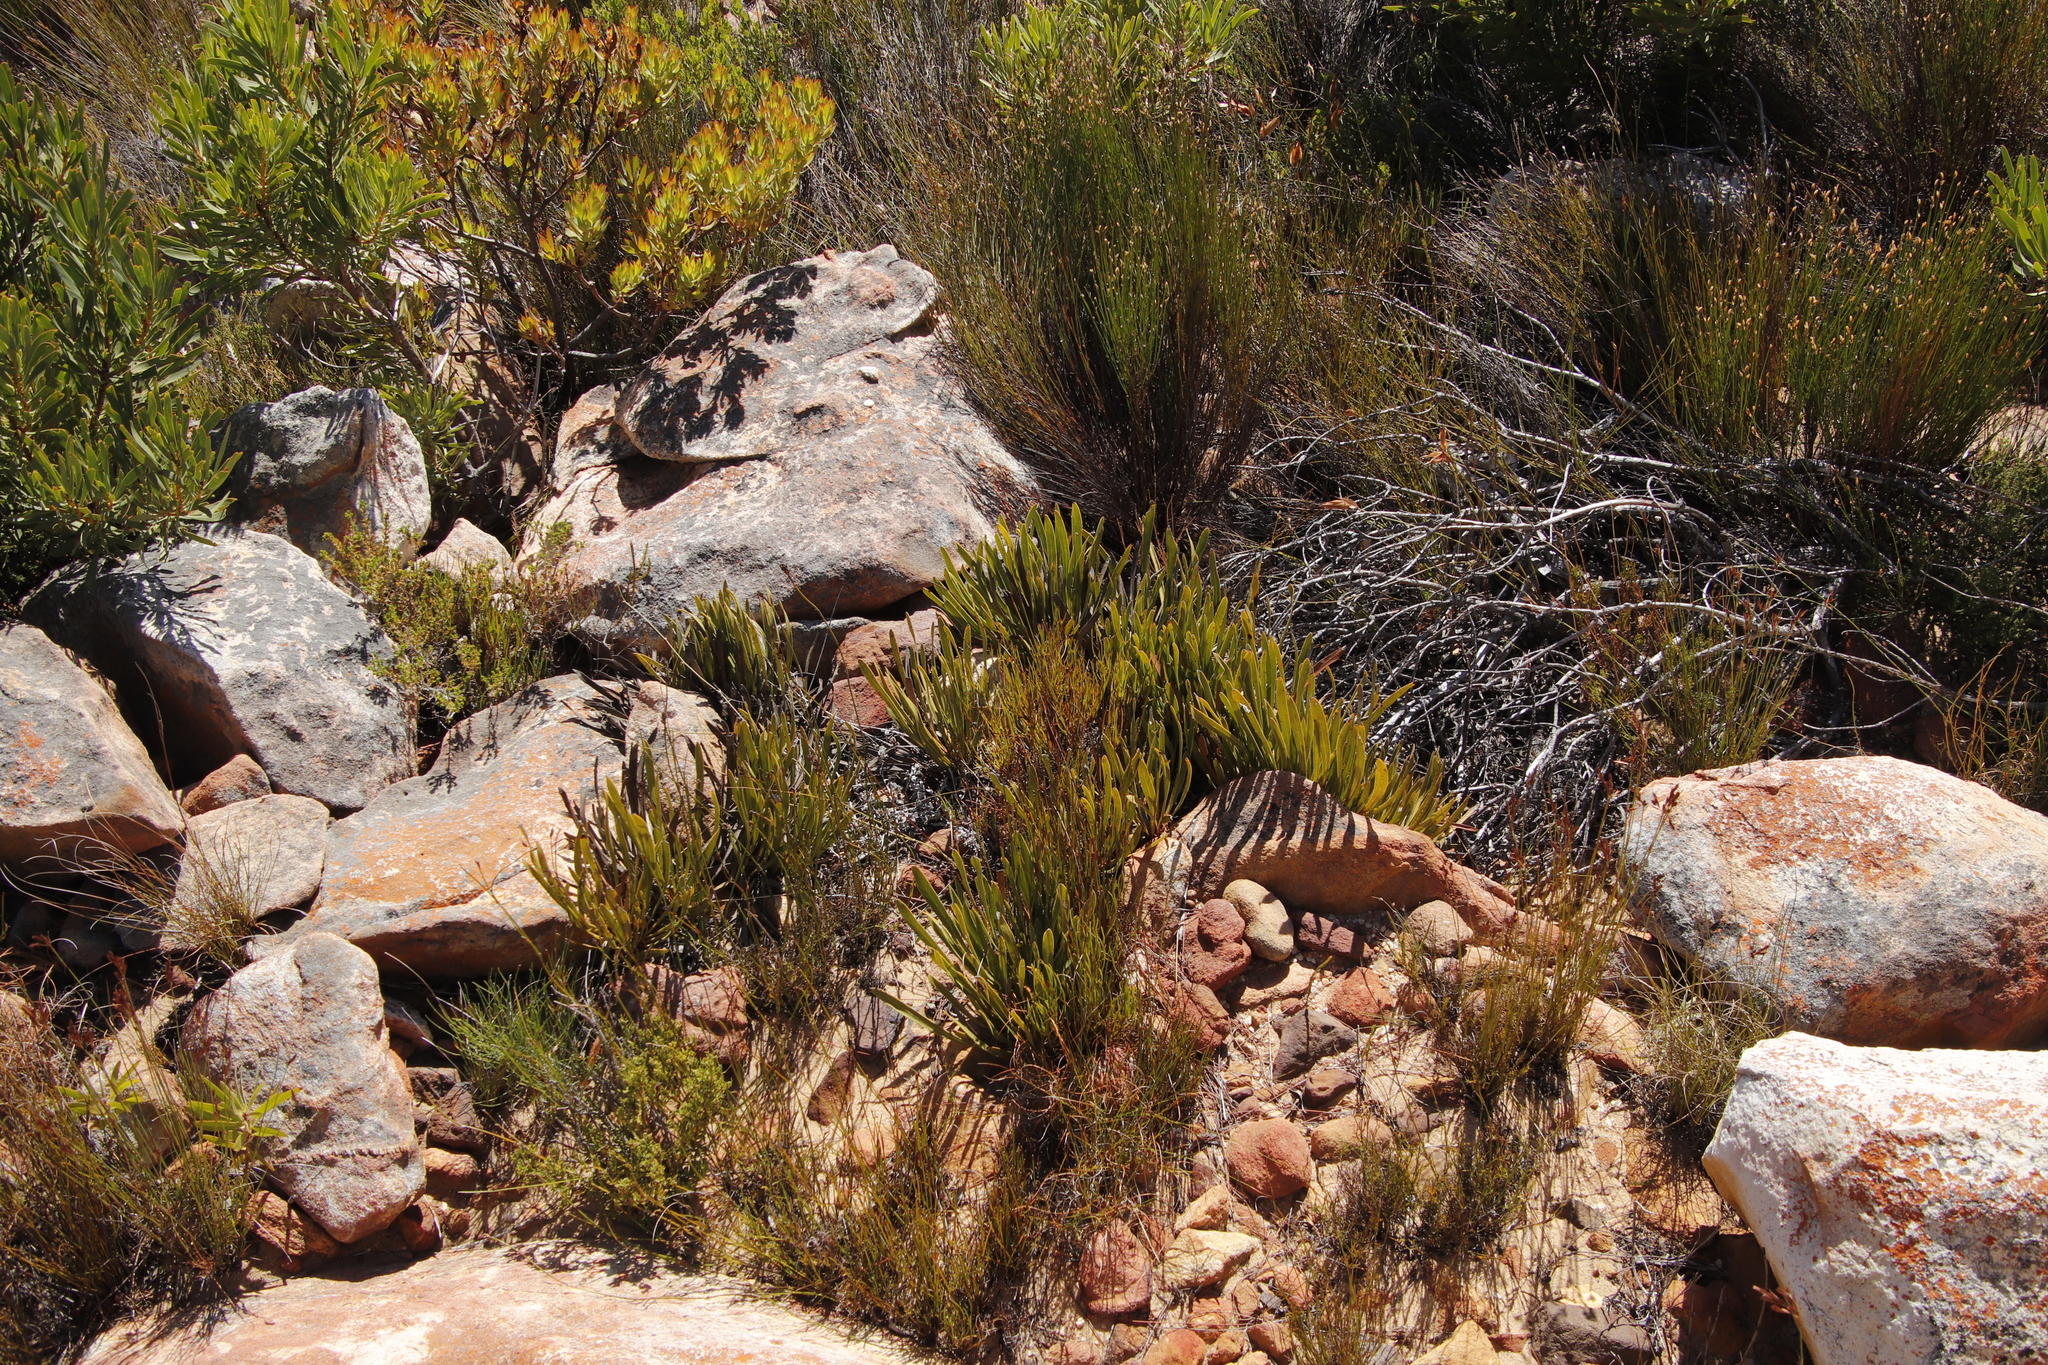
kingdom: Plantae
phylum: Tracheophyta
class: Magnoliopsida
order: Proteales
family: Proteaceae
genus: Protea
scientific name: Protea scabra
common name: Sandpaper-leaf sugarbush
